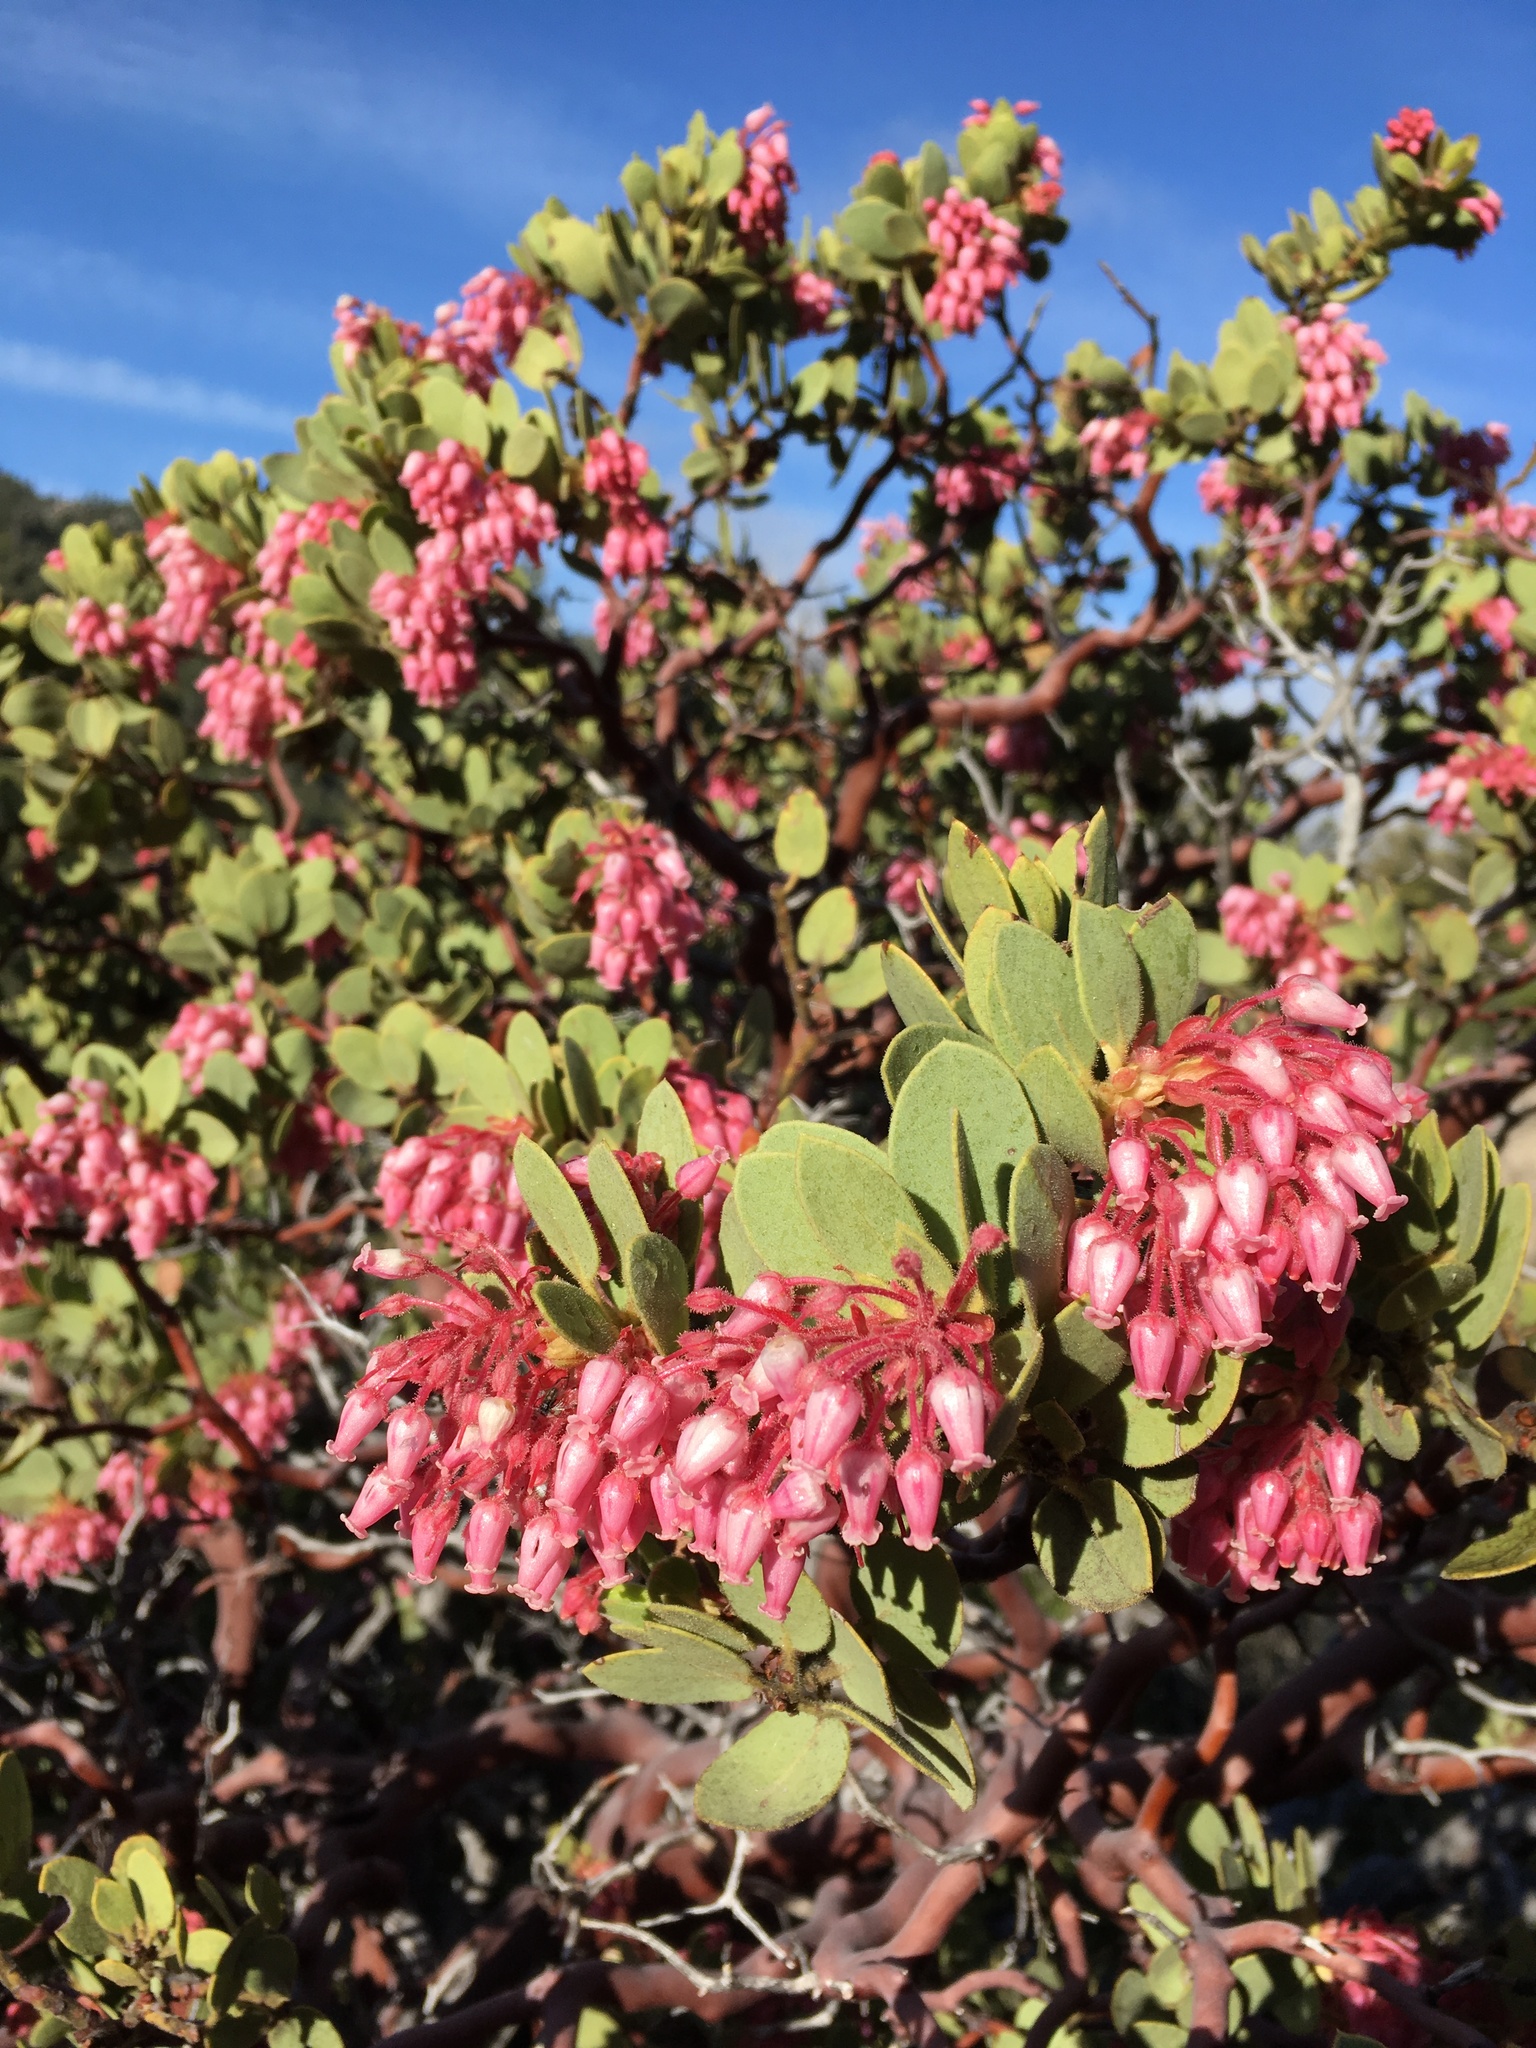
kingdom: Plantae
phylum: Tracheophyta
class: Magnoliopsida
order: Ericales
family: Ericaceae
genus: Arctostaphylos
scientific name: Arctostaphylos pringlei
